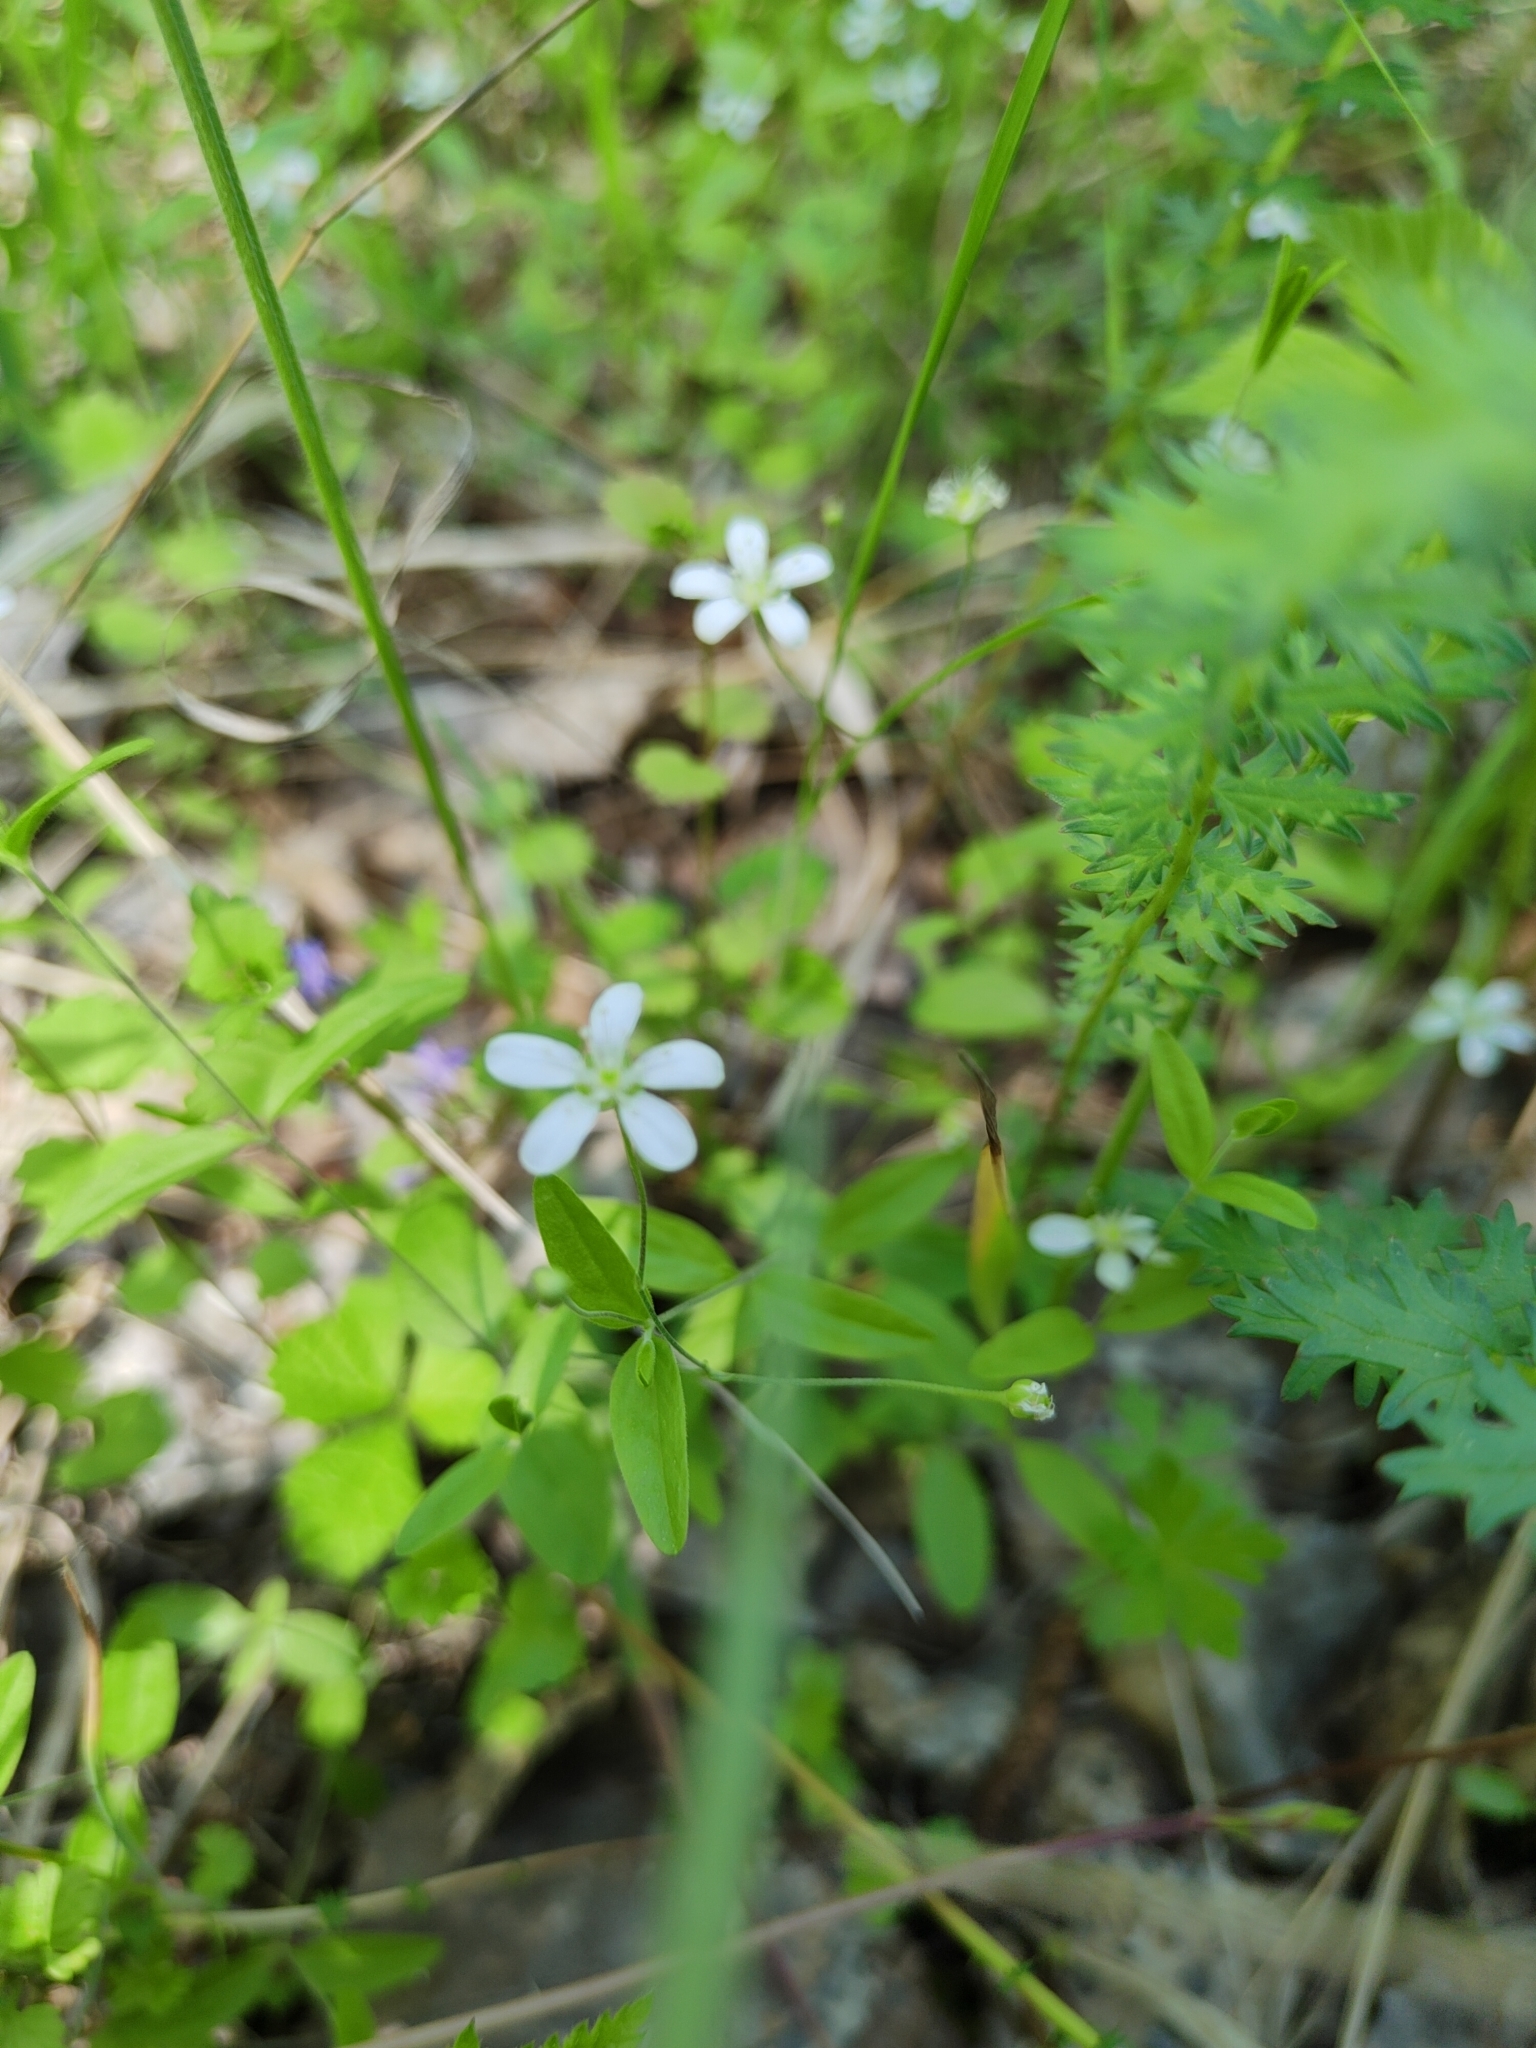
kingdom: Plantae
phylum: Tracheophyta
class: Magnoliopsida
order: Caryophyllales
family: Caryophyllaceae
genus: Moehringia
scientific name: Moehringia lateriflora
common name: Blunt-leaved sandwort
